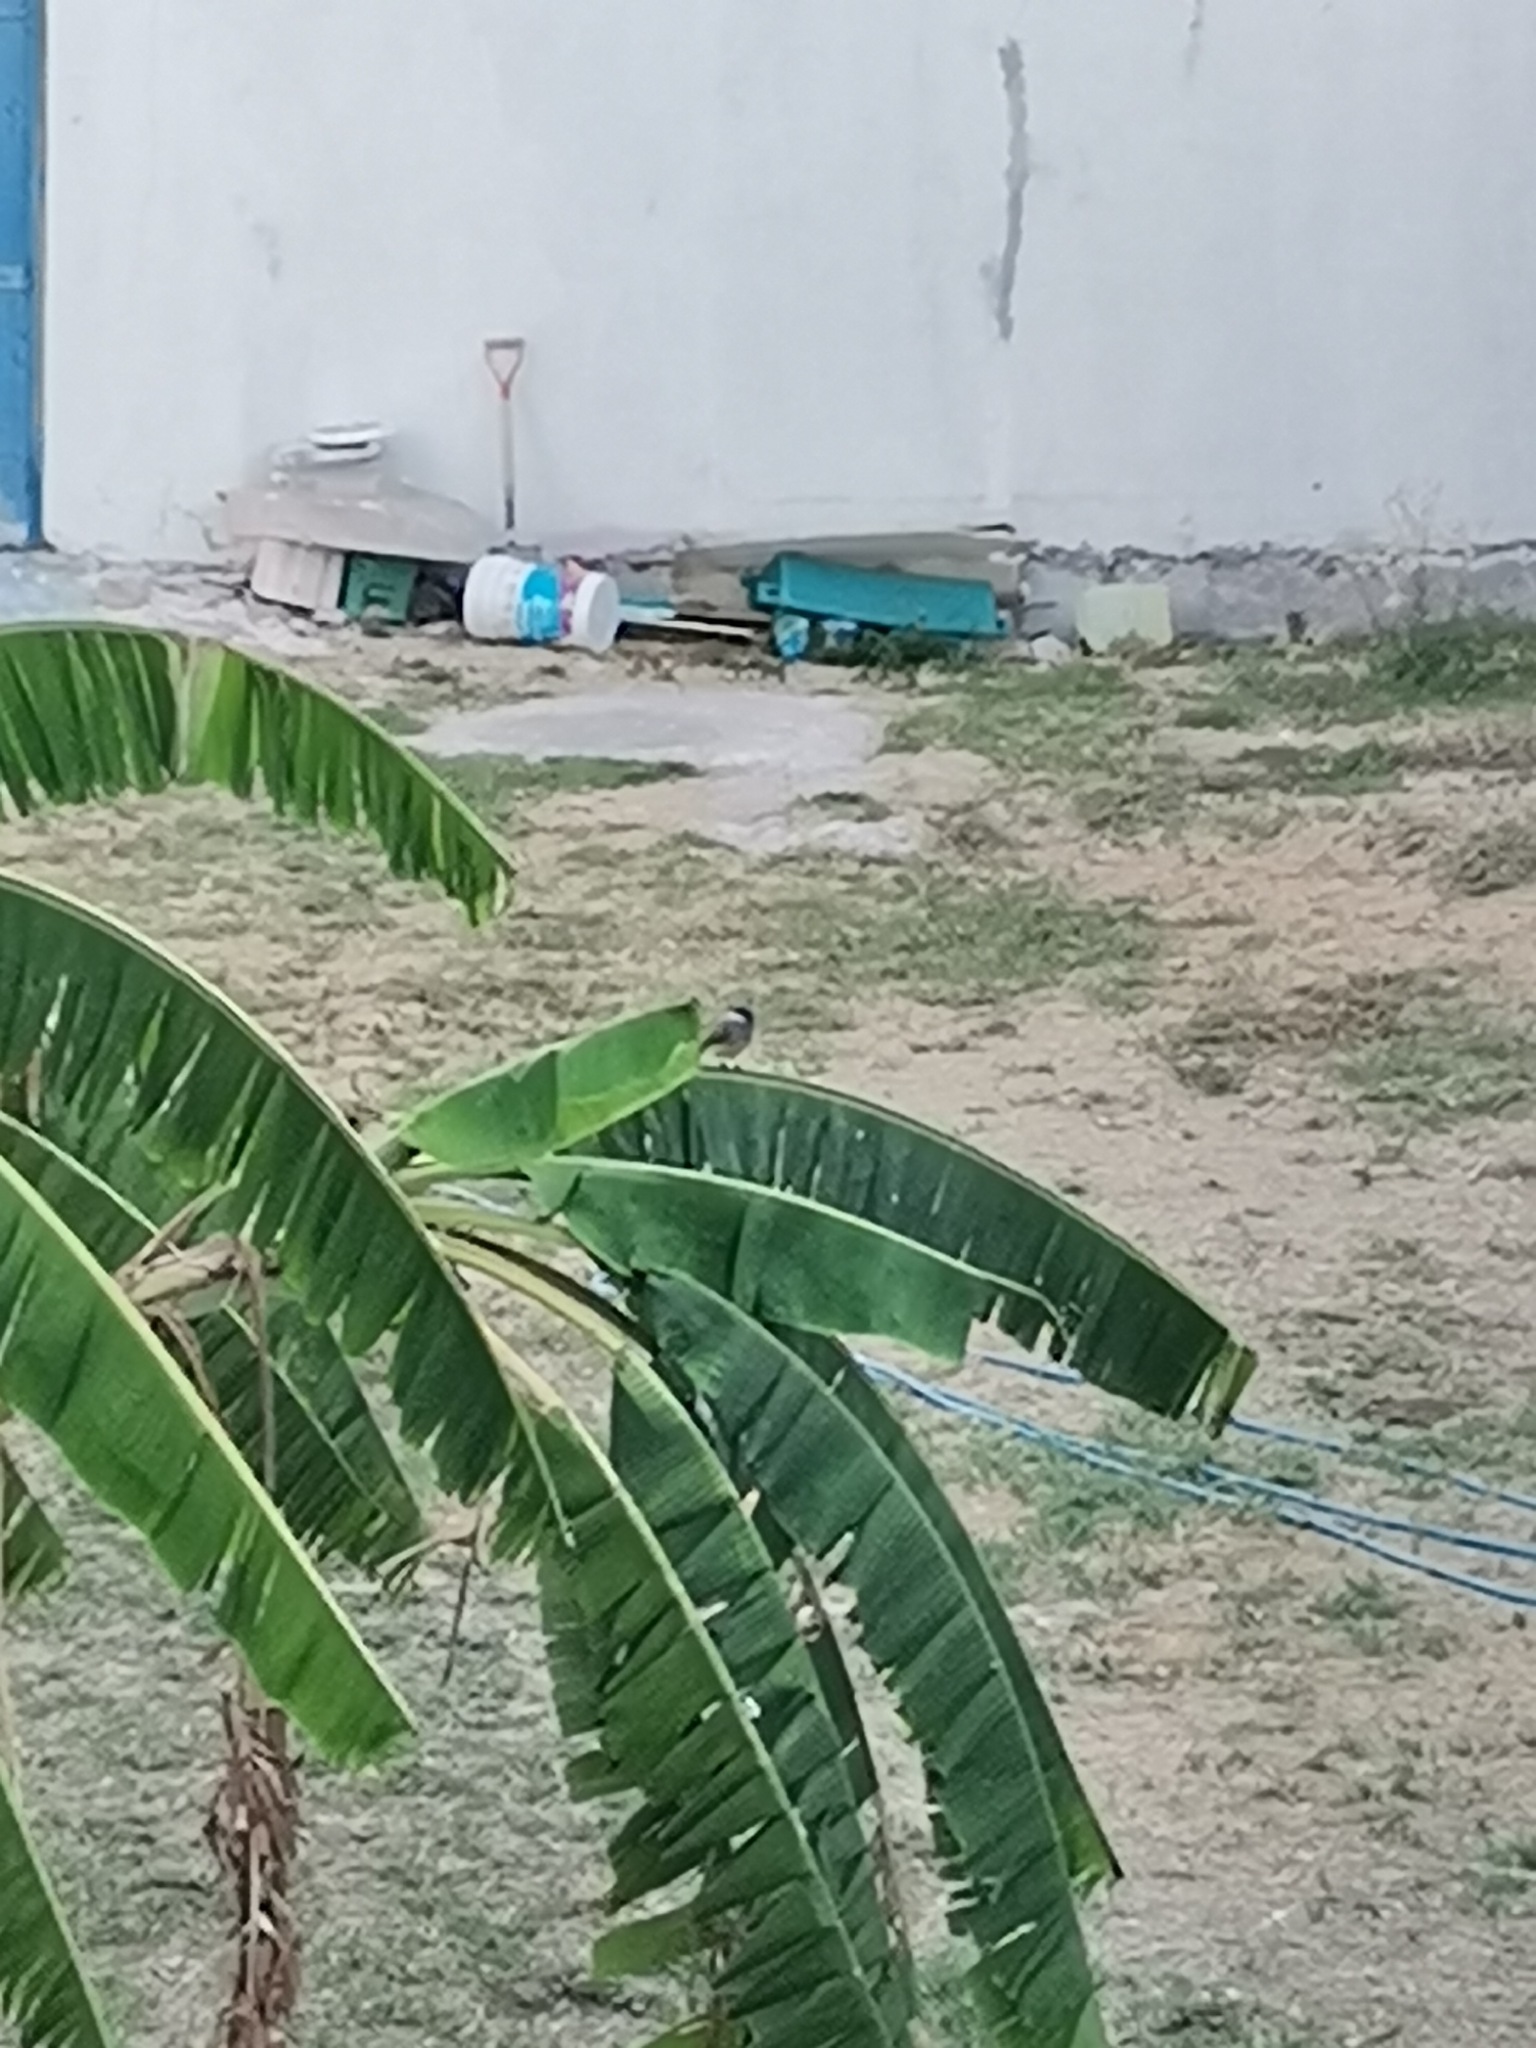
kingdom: Animalia
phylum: Chordata
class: Aves
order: Passeriformes
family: Tyrannidae
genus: Tyrannus
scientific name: Tyrannus vociferans
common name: Cassin's kingbird
